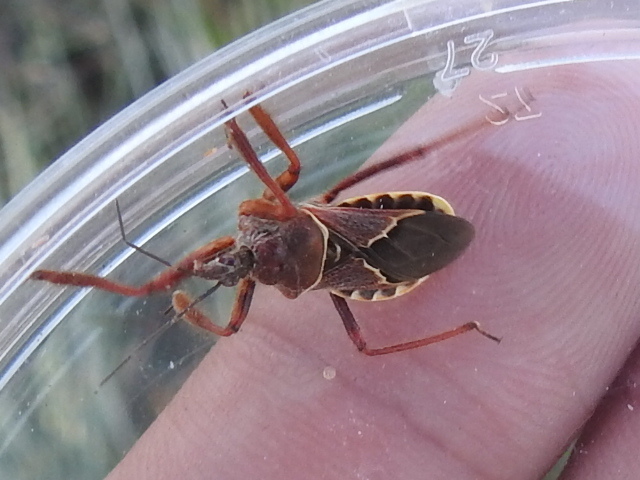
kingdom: Animalia
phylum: Arthropoda
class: Insecta
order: Hemiptera
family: Reduviidae
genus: Apiomerus
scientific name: Apiomerus spissipes
